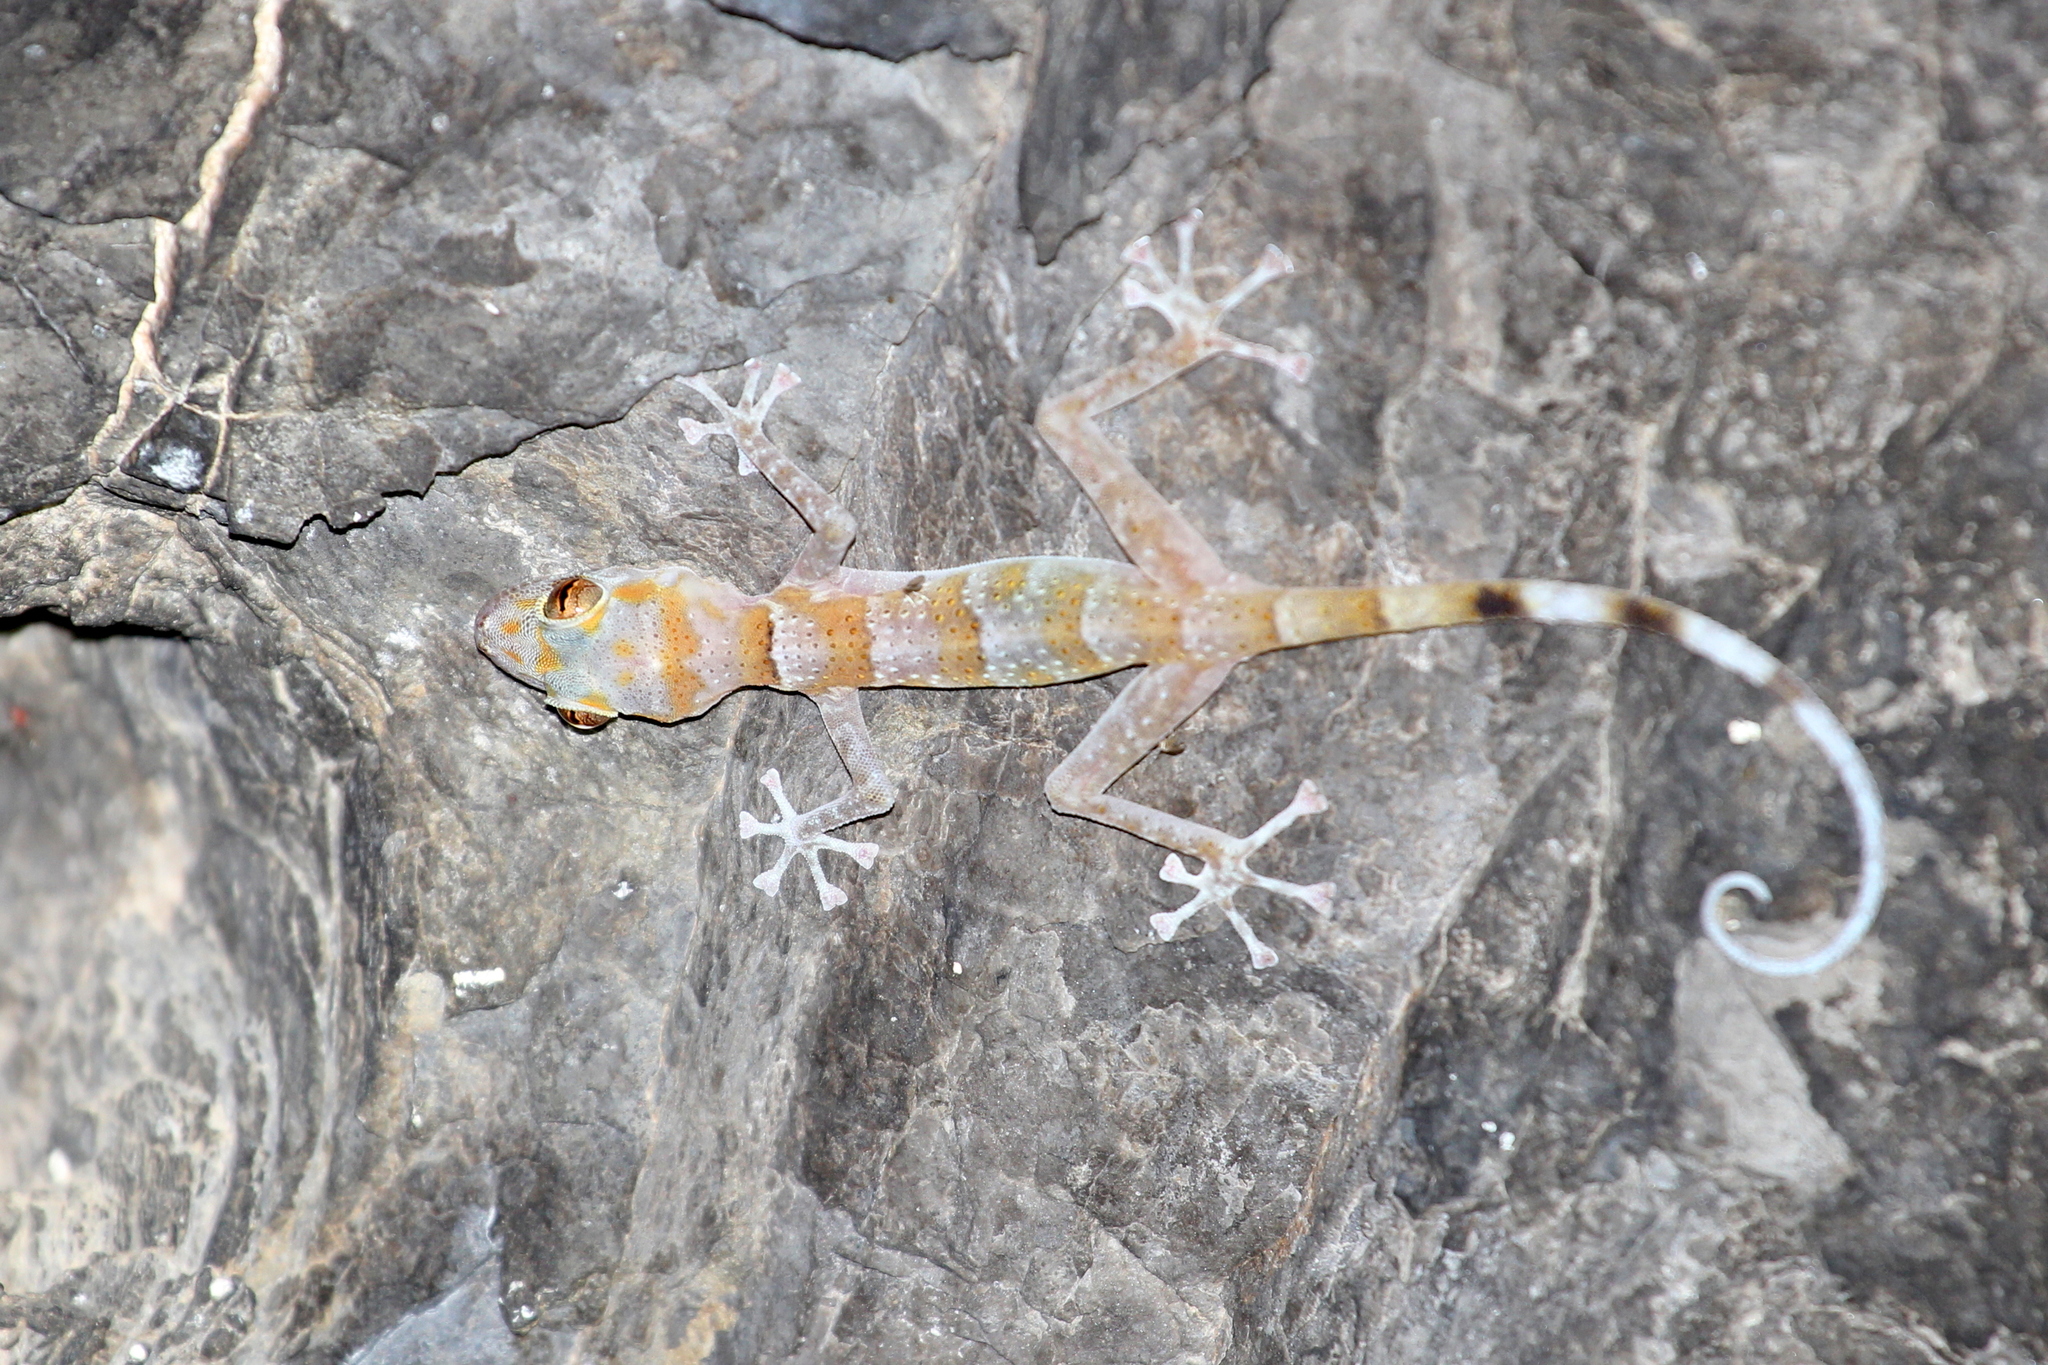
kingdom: Animalia
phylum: Chordata
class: Squamata
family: Phyllodactylidae
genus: Asaccus
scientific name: Asaccus platyrhynchus
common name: Flat-snouted leaf-toed gecko
